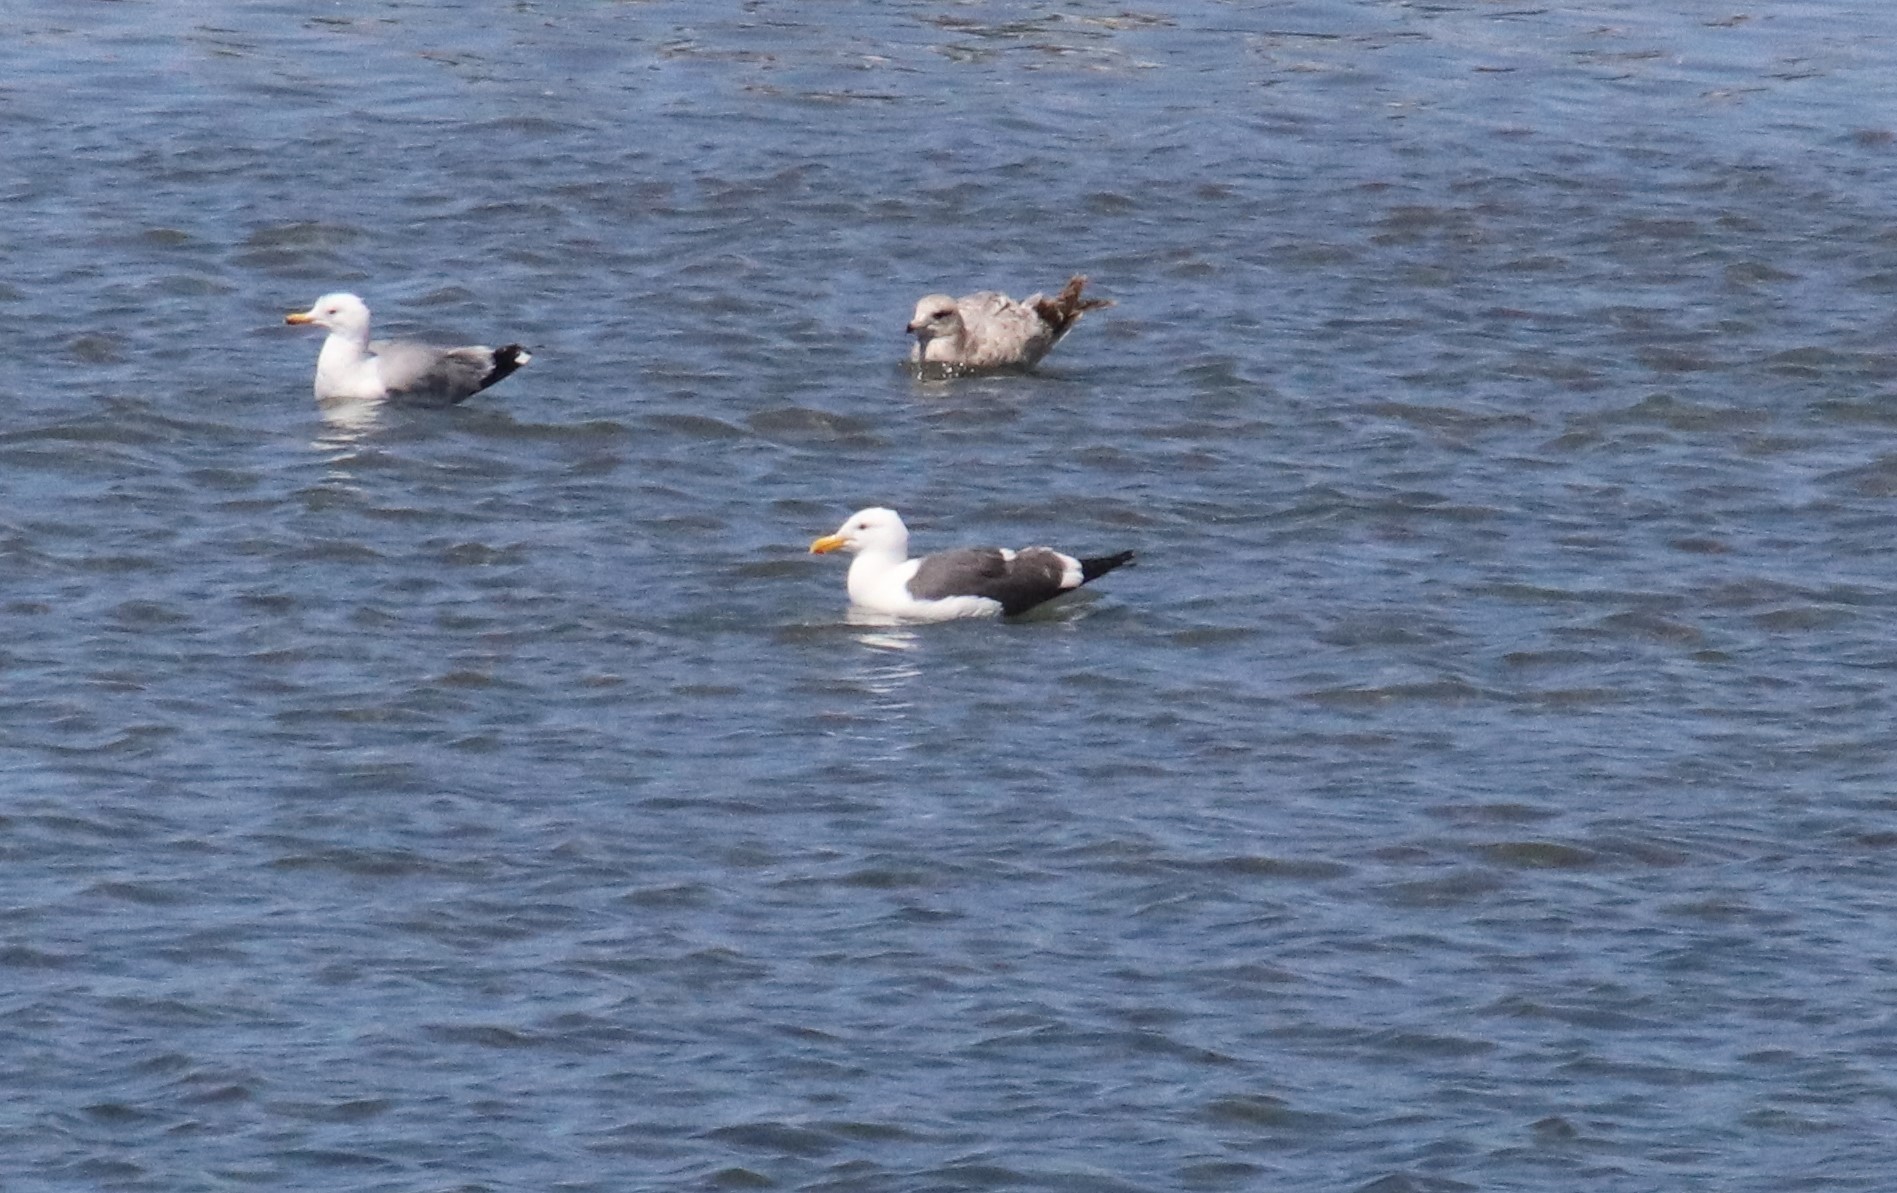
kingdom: Animalia
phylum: Chordata
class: Aves
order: Charadriiformes
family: Laridae
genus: Larus
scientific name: Larus occidentalis
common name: Western gull
